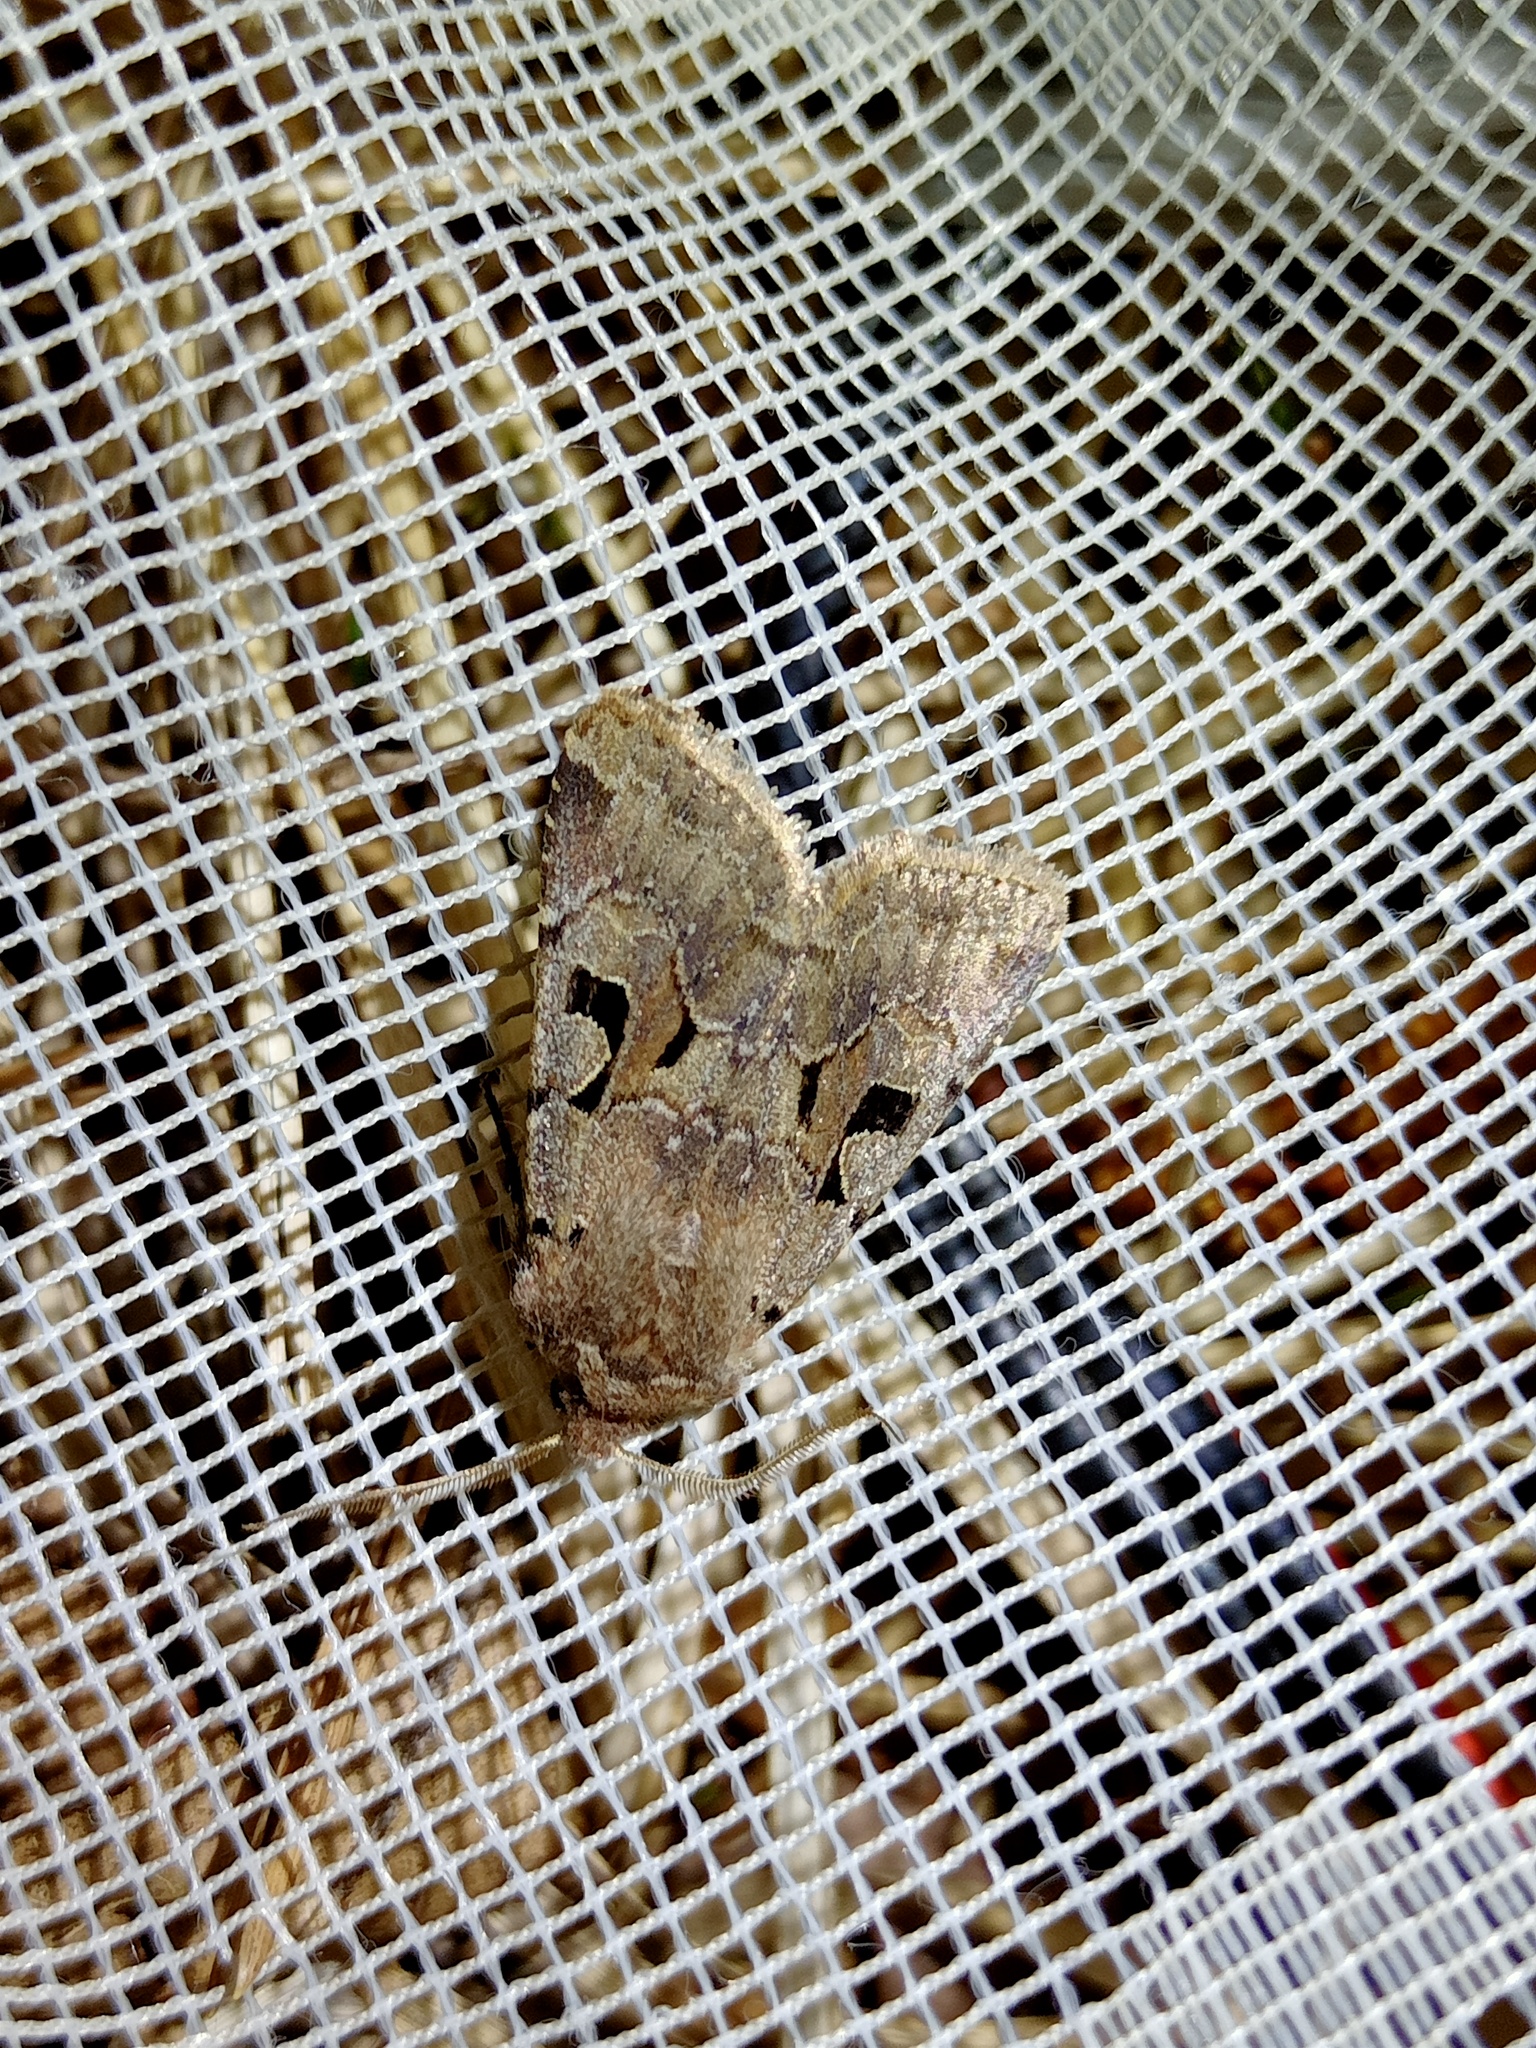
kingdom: Animalia
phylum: Arthropoda
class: Insecta
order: Lepidoptera
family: Noctuidae
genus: Orthosia
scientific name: Orthosia gothica
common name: Hebrew character
